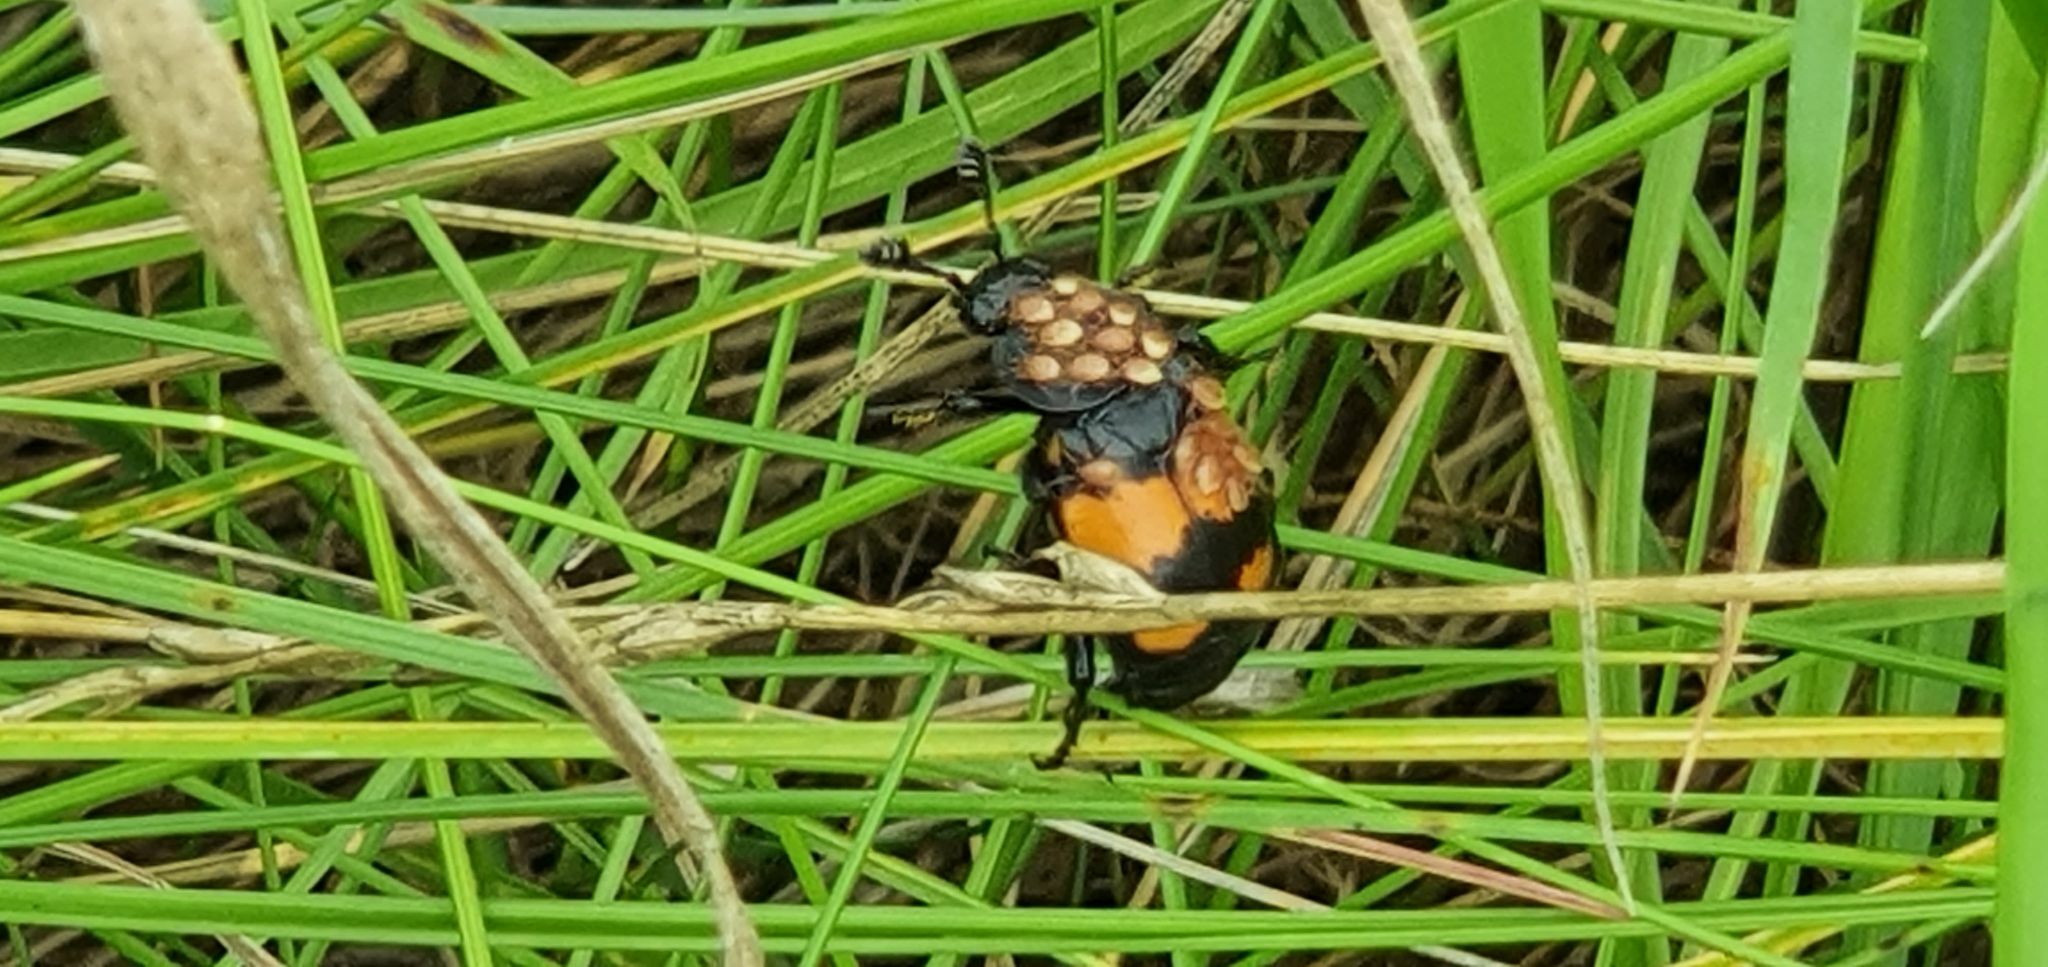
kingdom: Animalia
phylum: Arthropoda
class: Insecta
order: Coleoptera
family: Staphylinidae
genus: Nicrophorus
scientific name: Nicrophorus vespilloides
